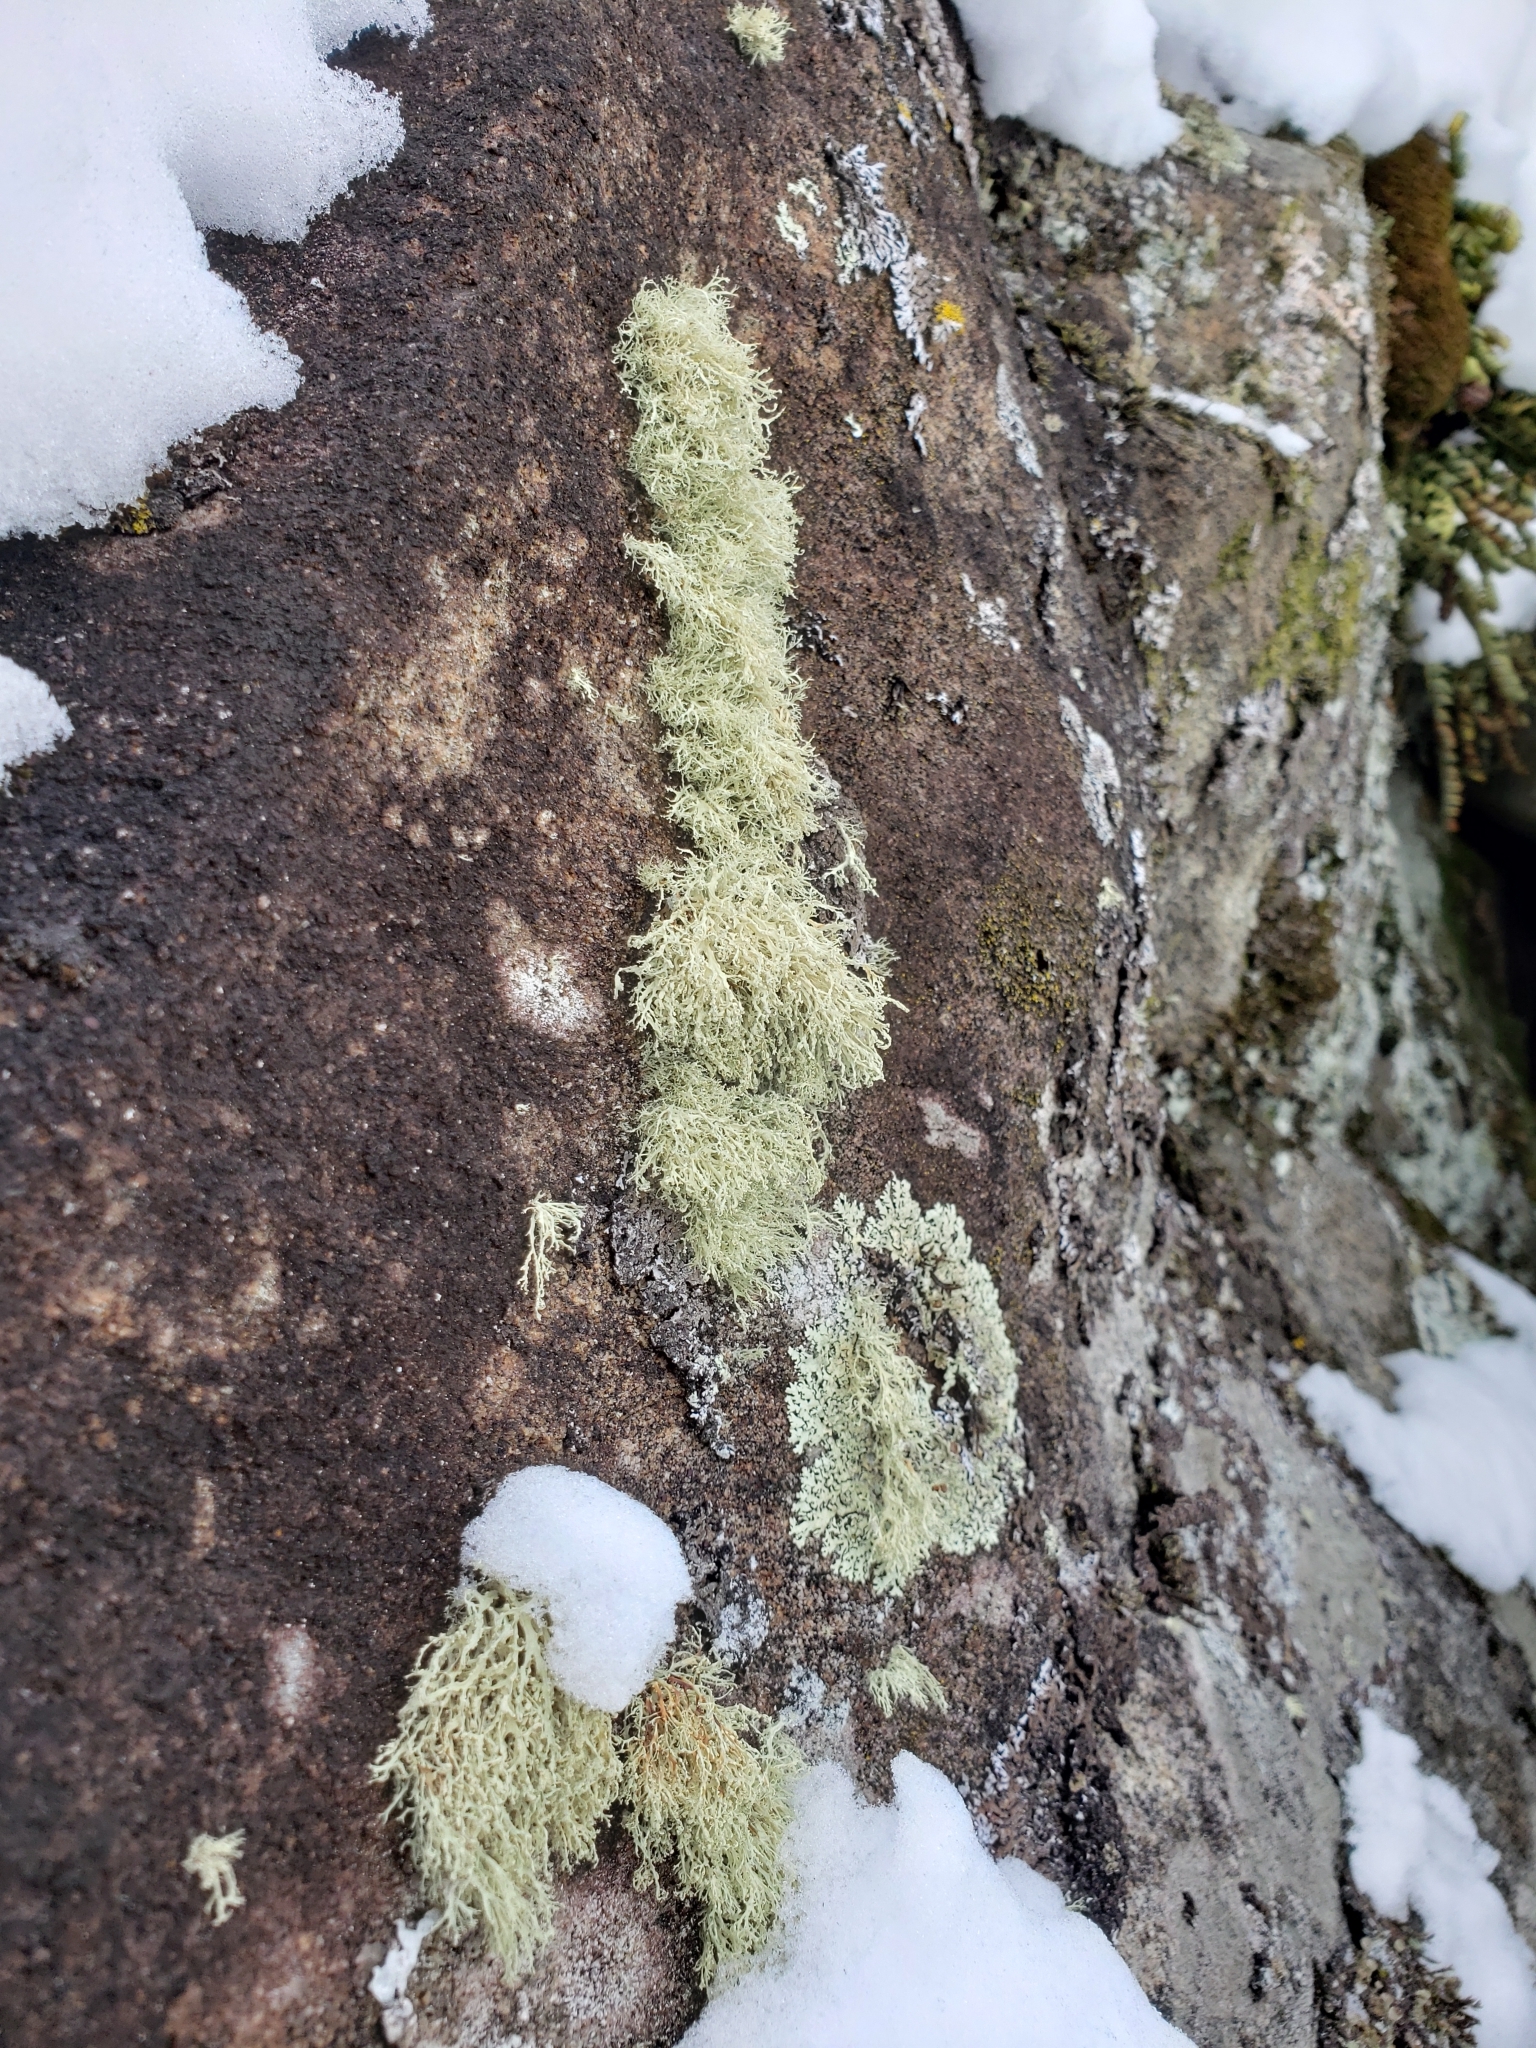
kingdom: Fungi
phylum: Ascomycota
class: Lecanoromycetes
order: Lecanorales
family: Ramalinaceae
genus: Ramalina
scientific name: Ramalina intermedia
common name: Rock bushy lichen
